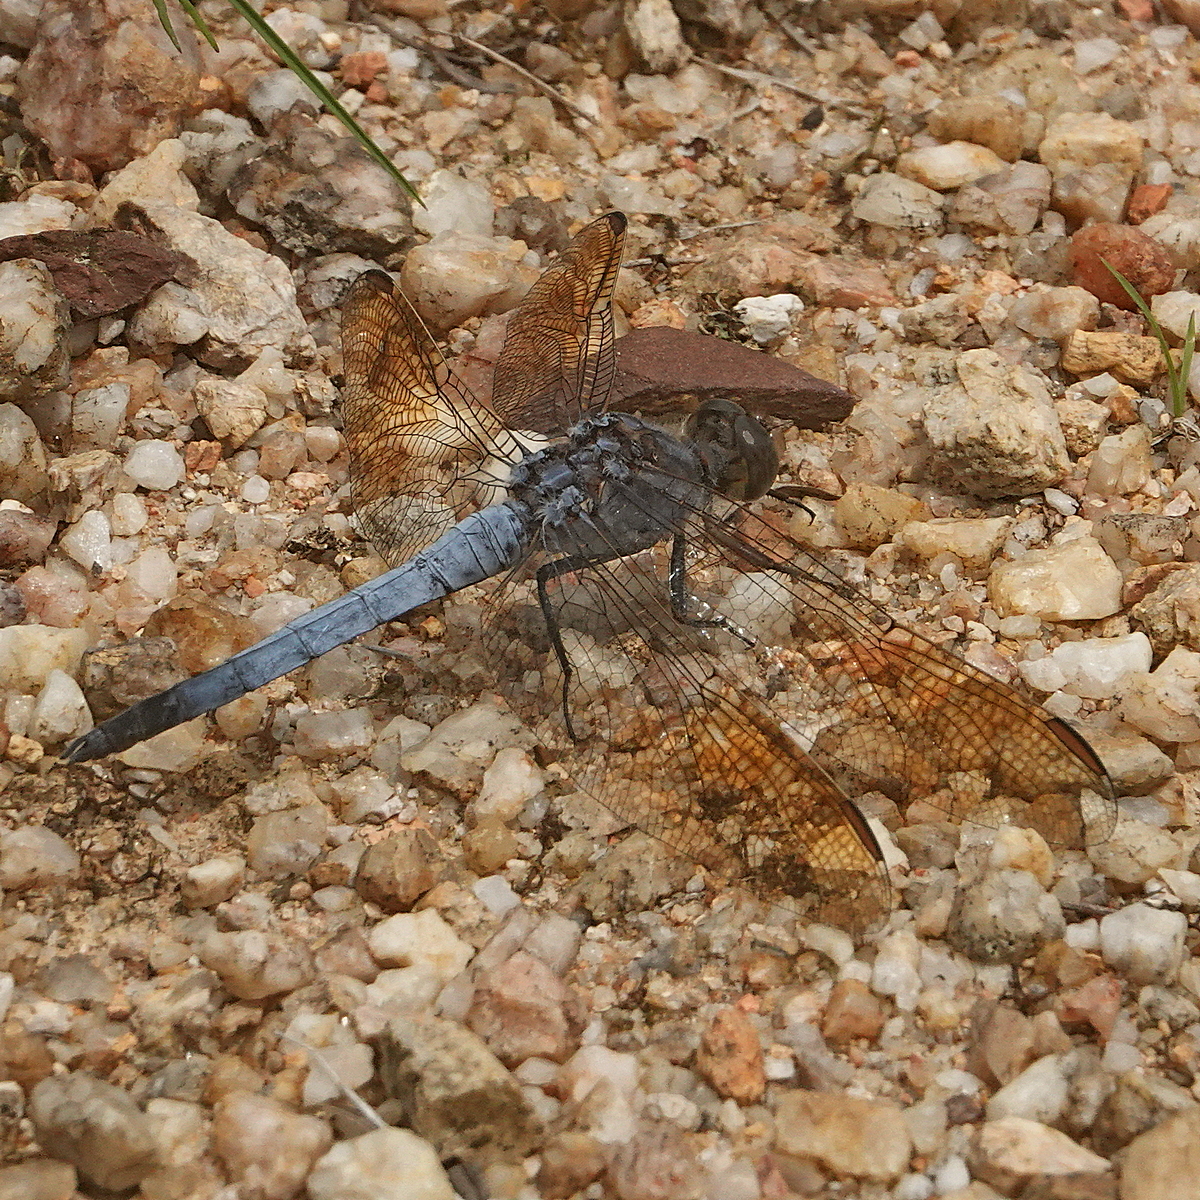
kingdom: Animalia
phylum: Arthropoda
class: Insecta
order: Odonata
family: Libellulidae
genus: Orthetrum
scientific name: Orthetrum caledonicum
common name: Blue skimmer
